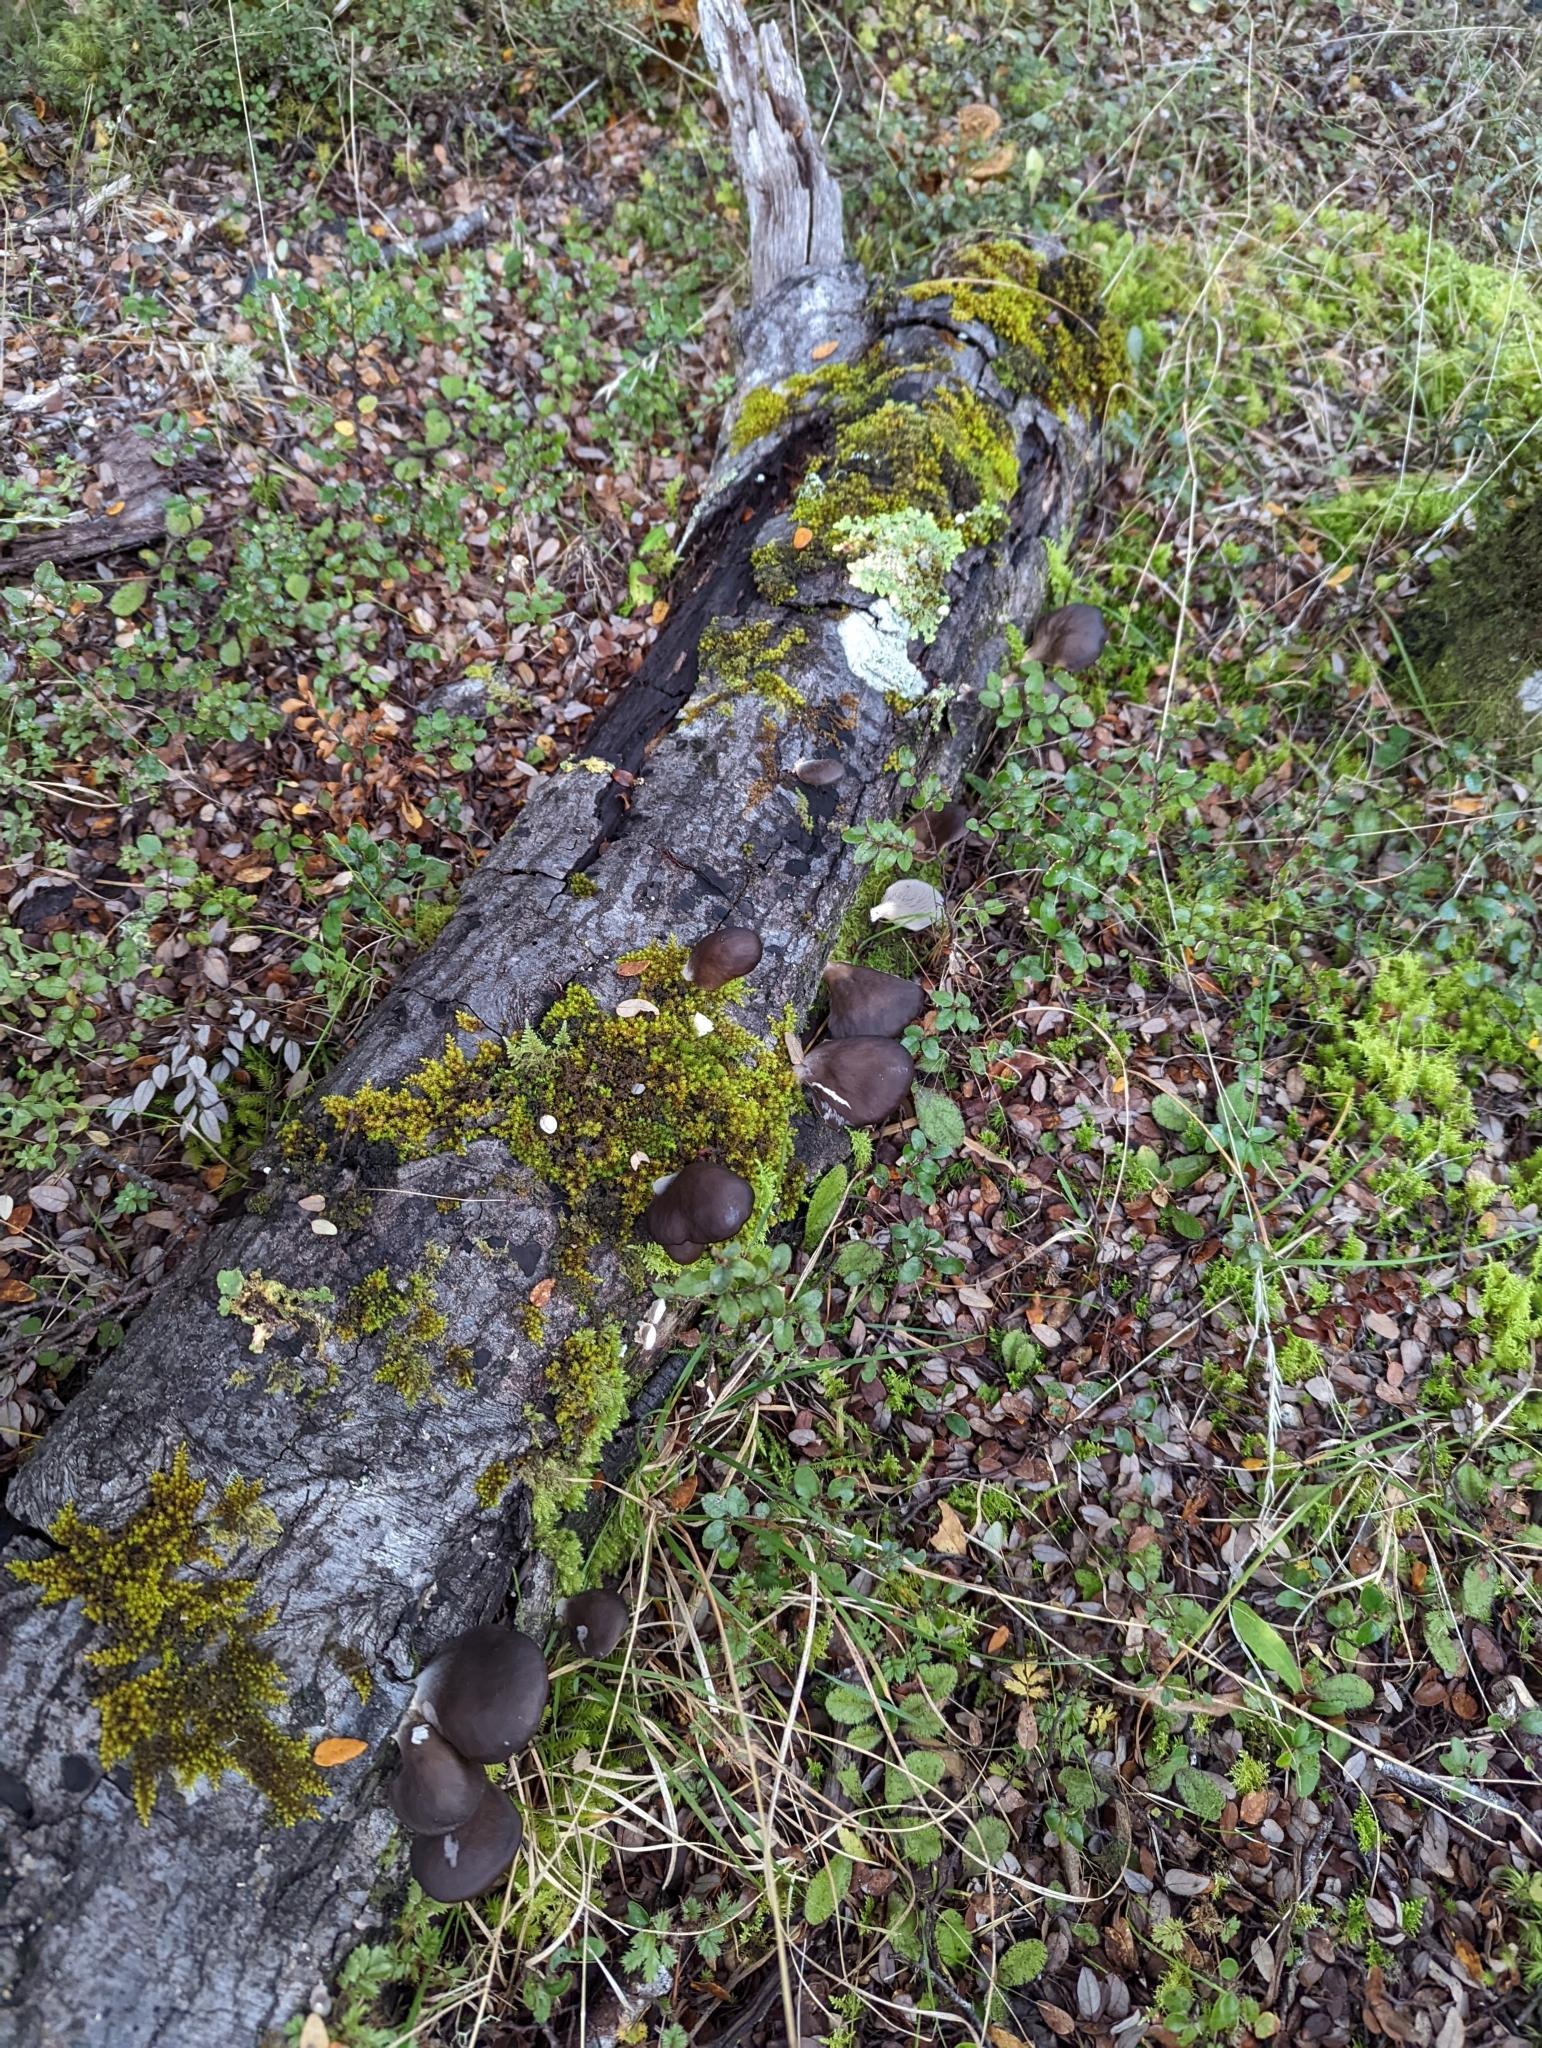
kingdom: Fungi
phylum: Basidiomycota
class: Agaricomycetes
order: Agaricales
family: Pleurotaceae
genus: Pleurotus
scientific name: Pleurotus purpureo-olivaceus
